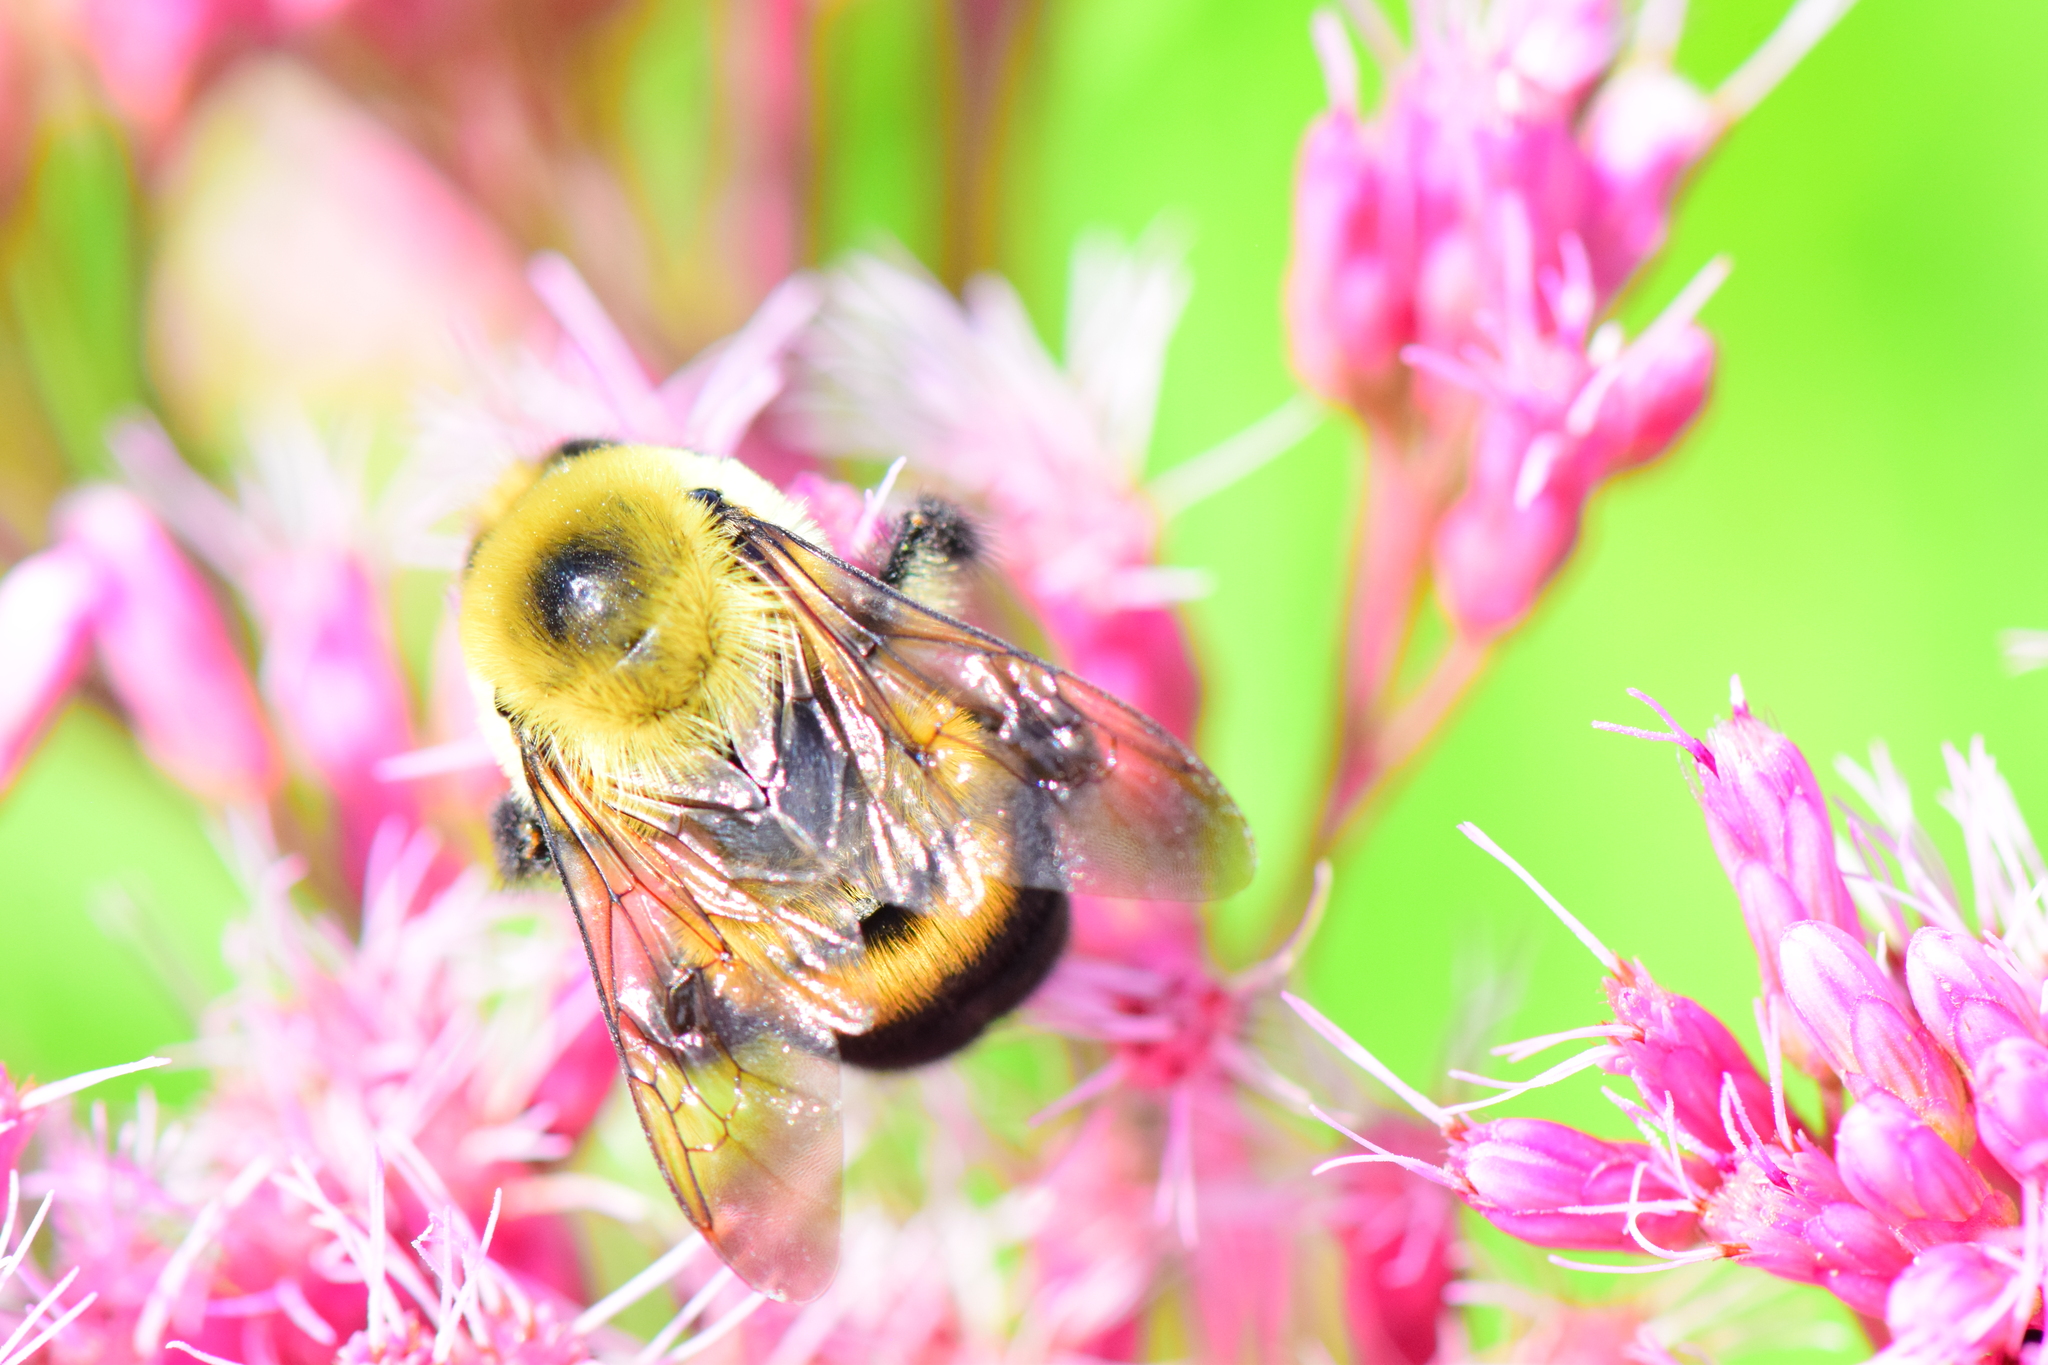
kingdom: Animalia
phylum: Arthropoda
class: Insecta
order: Hymenoptera
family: Apidae
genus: Bombus
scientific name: Bombus griseocollis
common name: Brown-belted bumble bee
